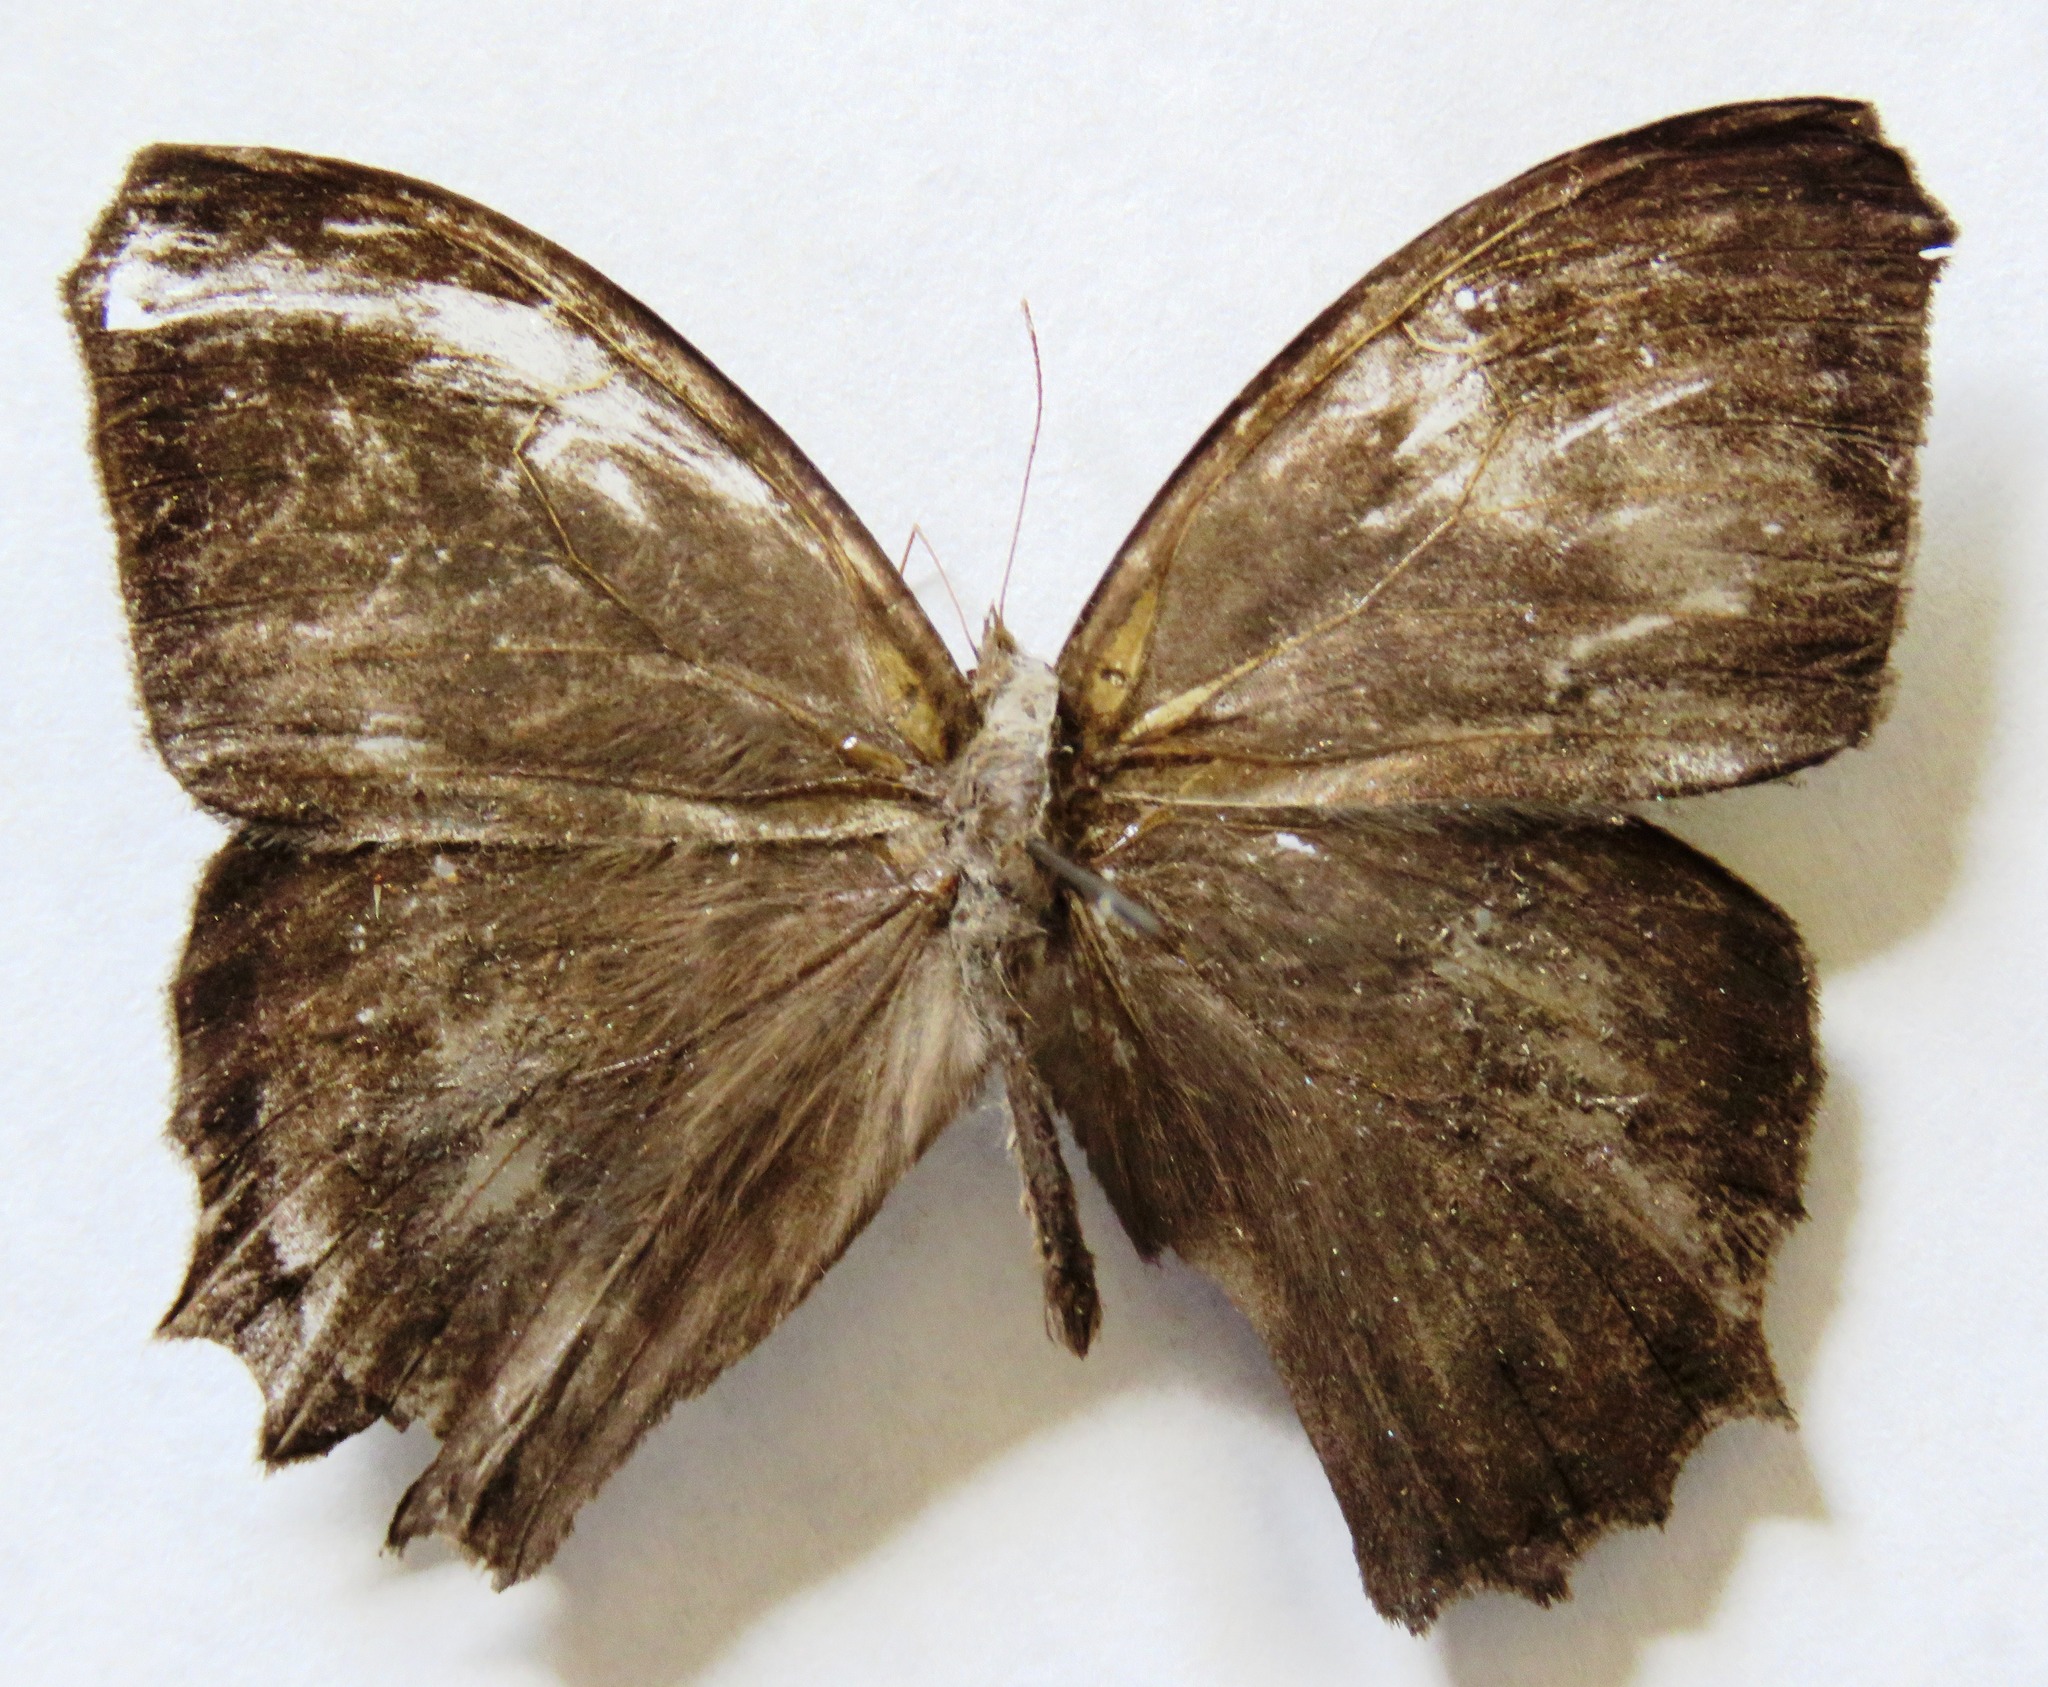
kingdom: Animalia
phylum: Arthropoda
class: Insecta
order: Lepidoptera
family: Nymphalidae
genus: Taygetis
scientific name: Taygetis inconspicua
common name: Inconspicuous satyr
